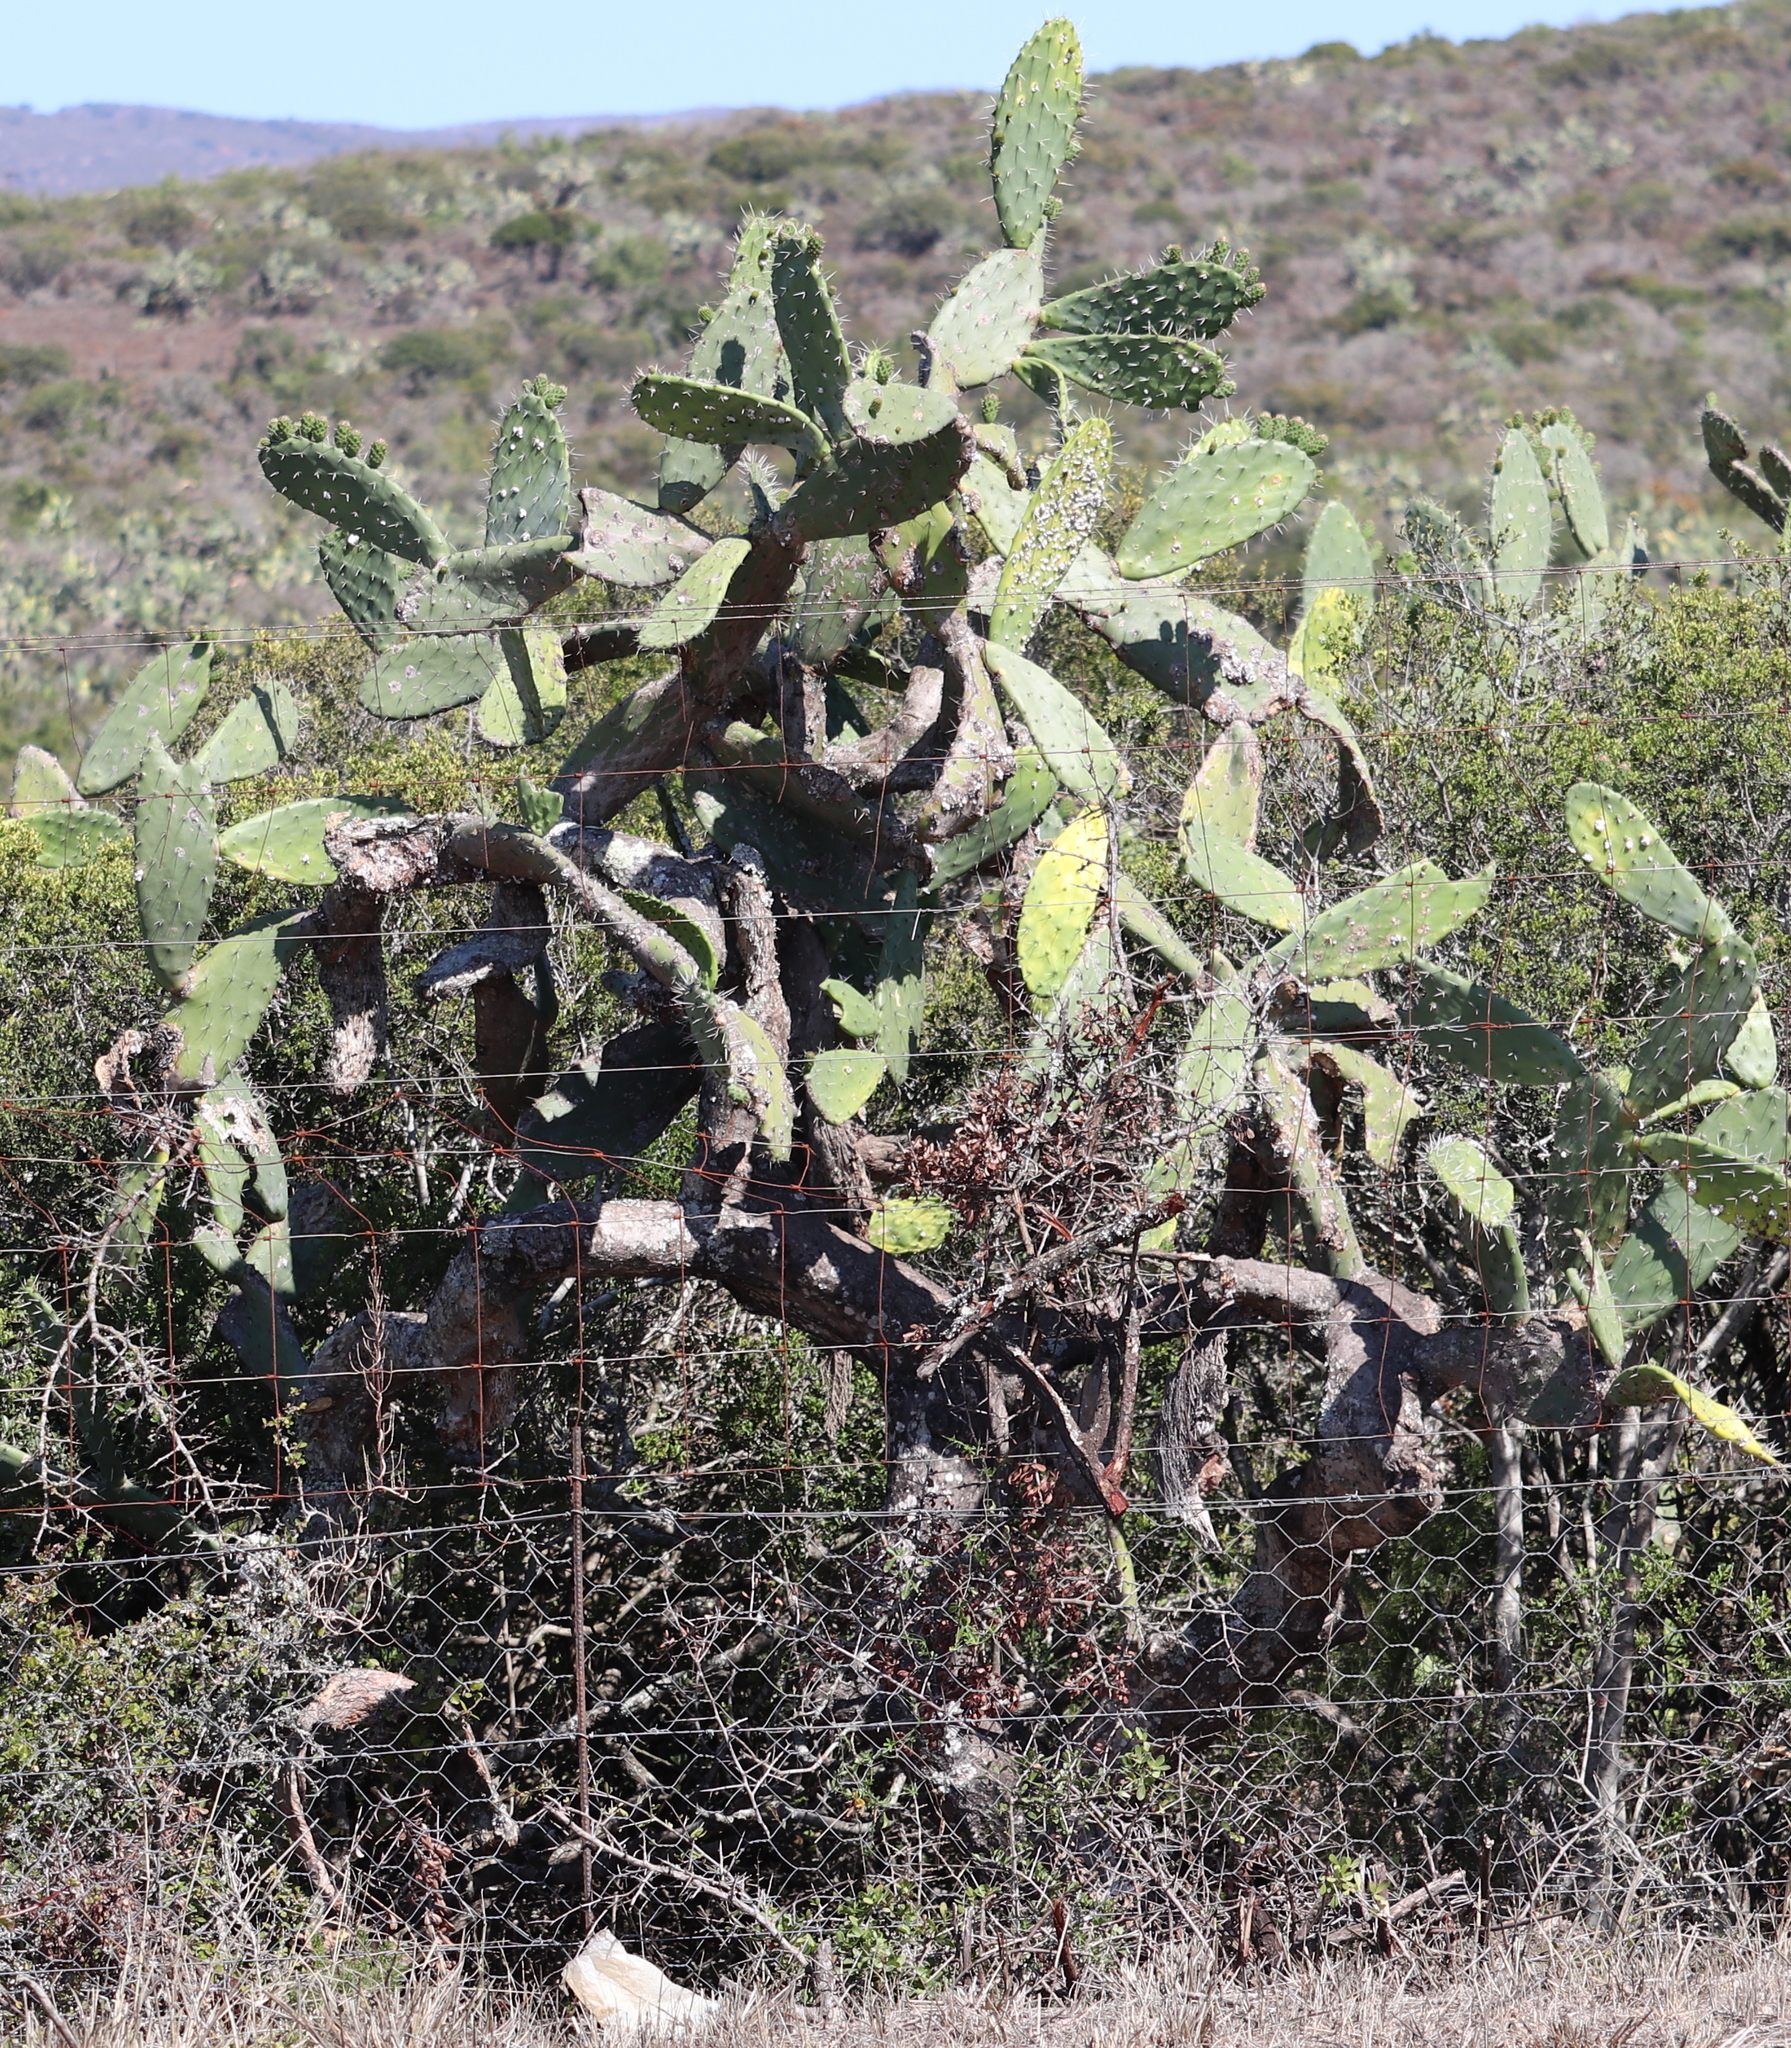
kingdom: Plantae
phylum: Tracheophyta
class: Magnoliopsida
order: Caryophyllales
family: Cactaceae
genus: Opuntia
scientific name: Opuntia ficus-indica
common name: Barbary fig
